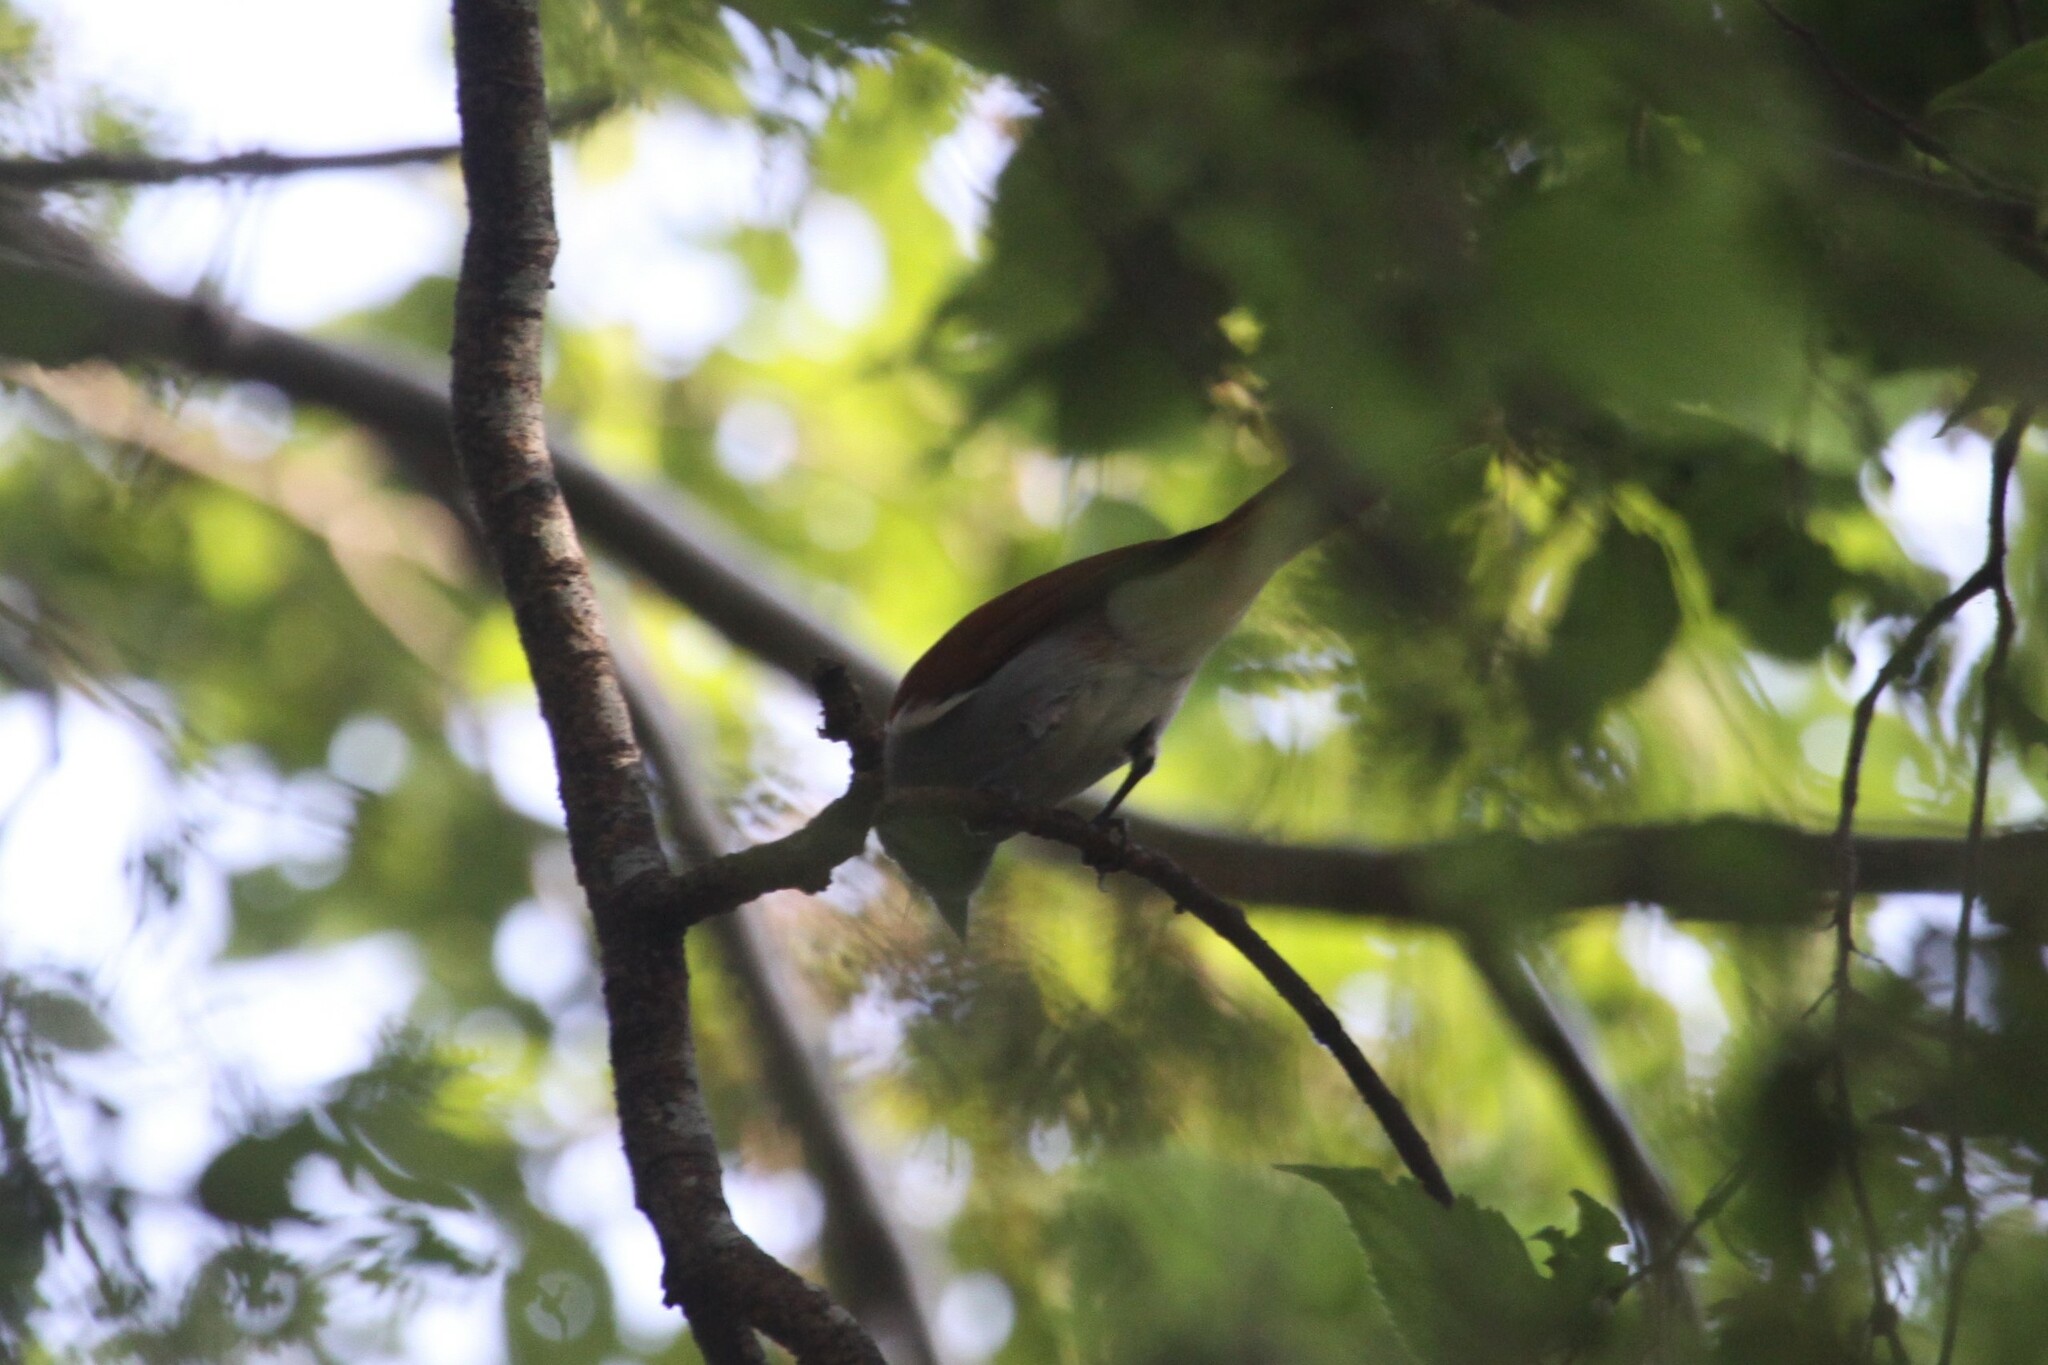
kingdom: Animalia
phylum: Chordata
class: Aves
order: Passeriformes
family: Monarchidae
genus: Terpsiphone
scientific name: Terpsiphone viridis
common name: African paradise flycatcher
